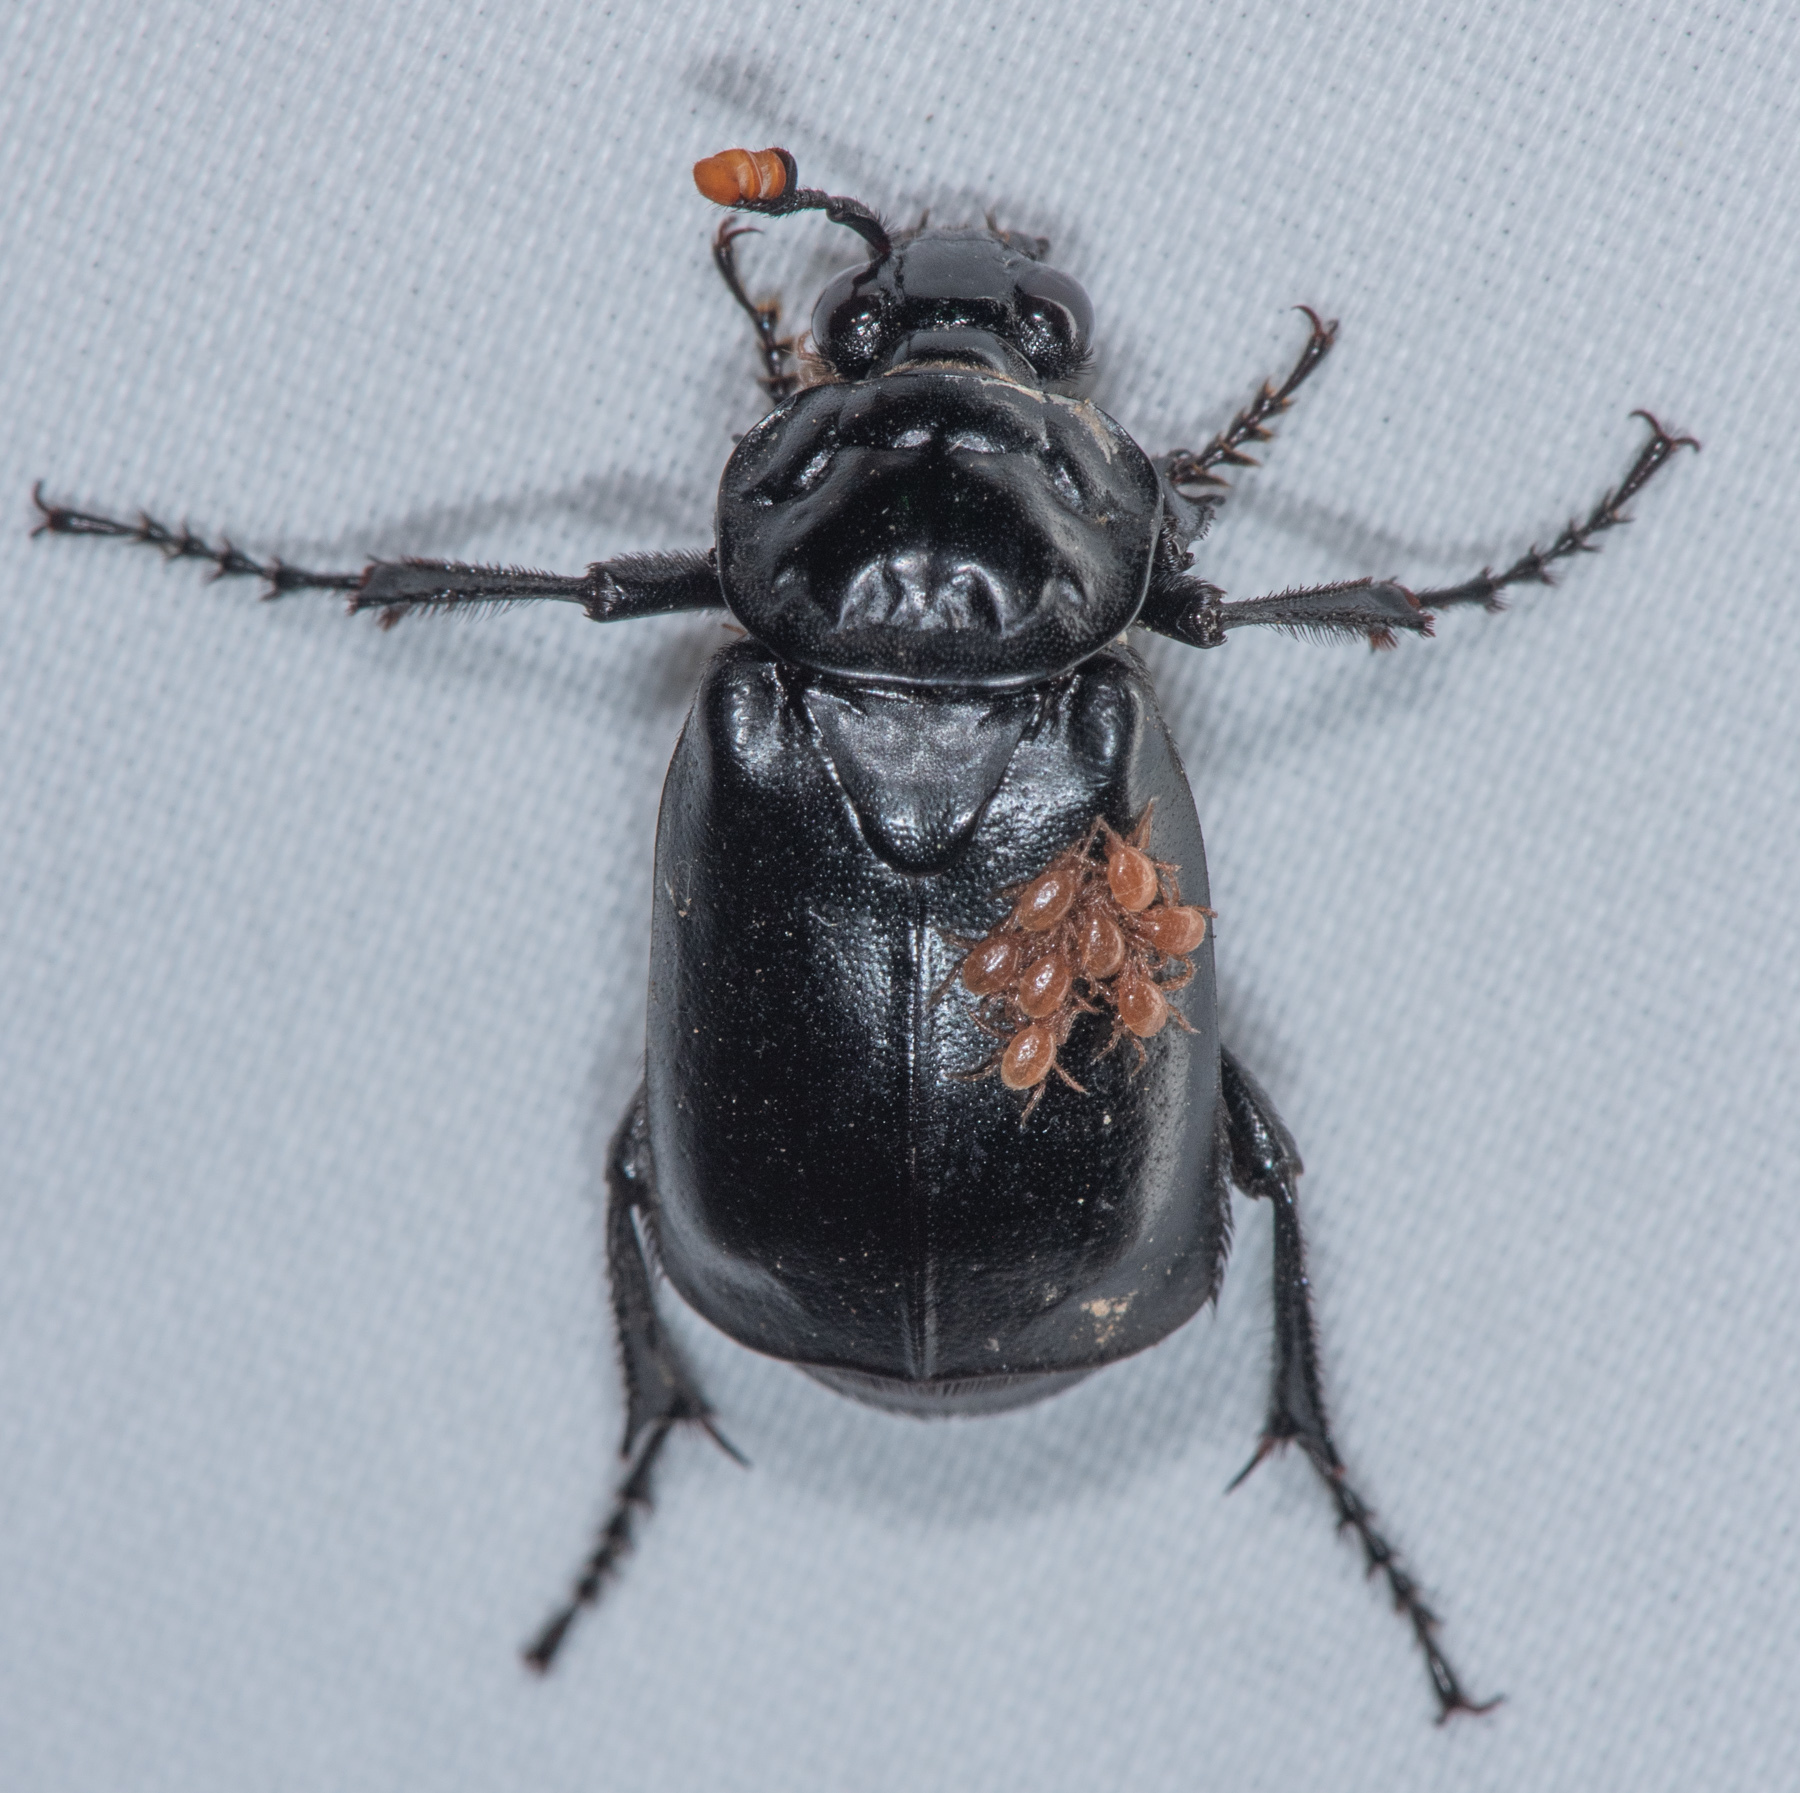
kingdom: Animalia
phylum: Arthropoda
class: Insecta
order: Coleoptera
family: Staphylinidae
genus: Nicrophorus
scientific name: Nicrophorus nigrita
